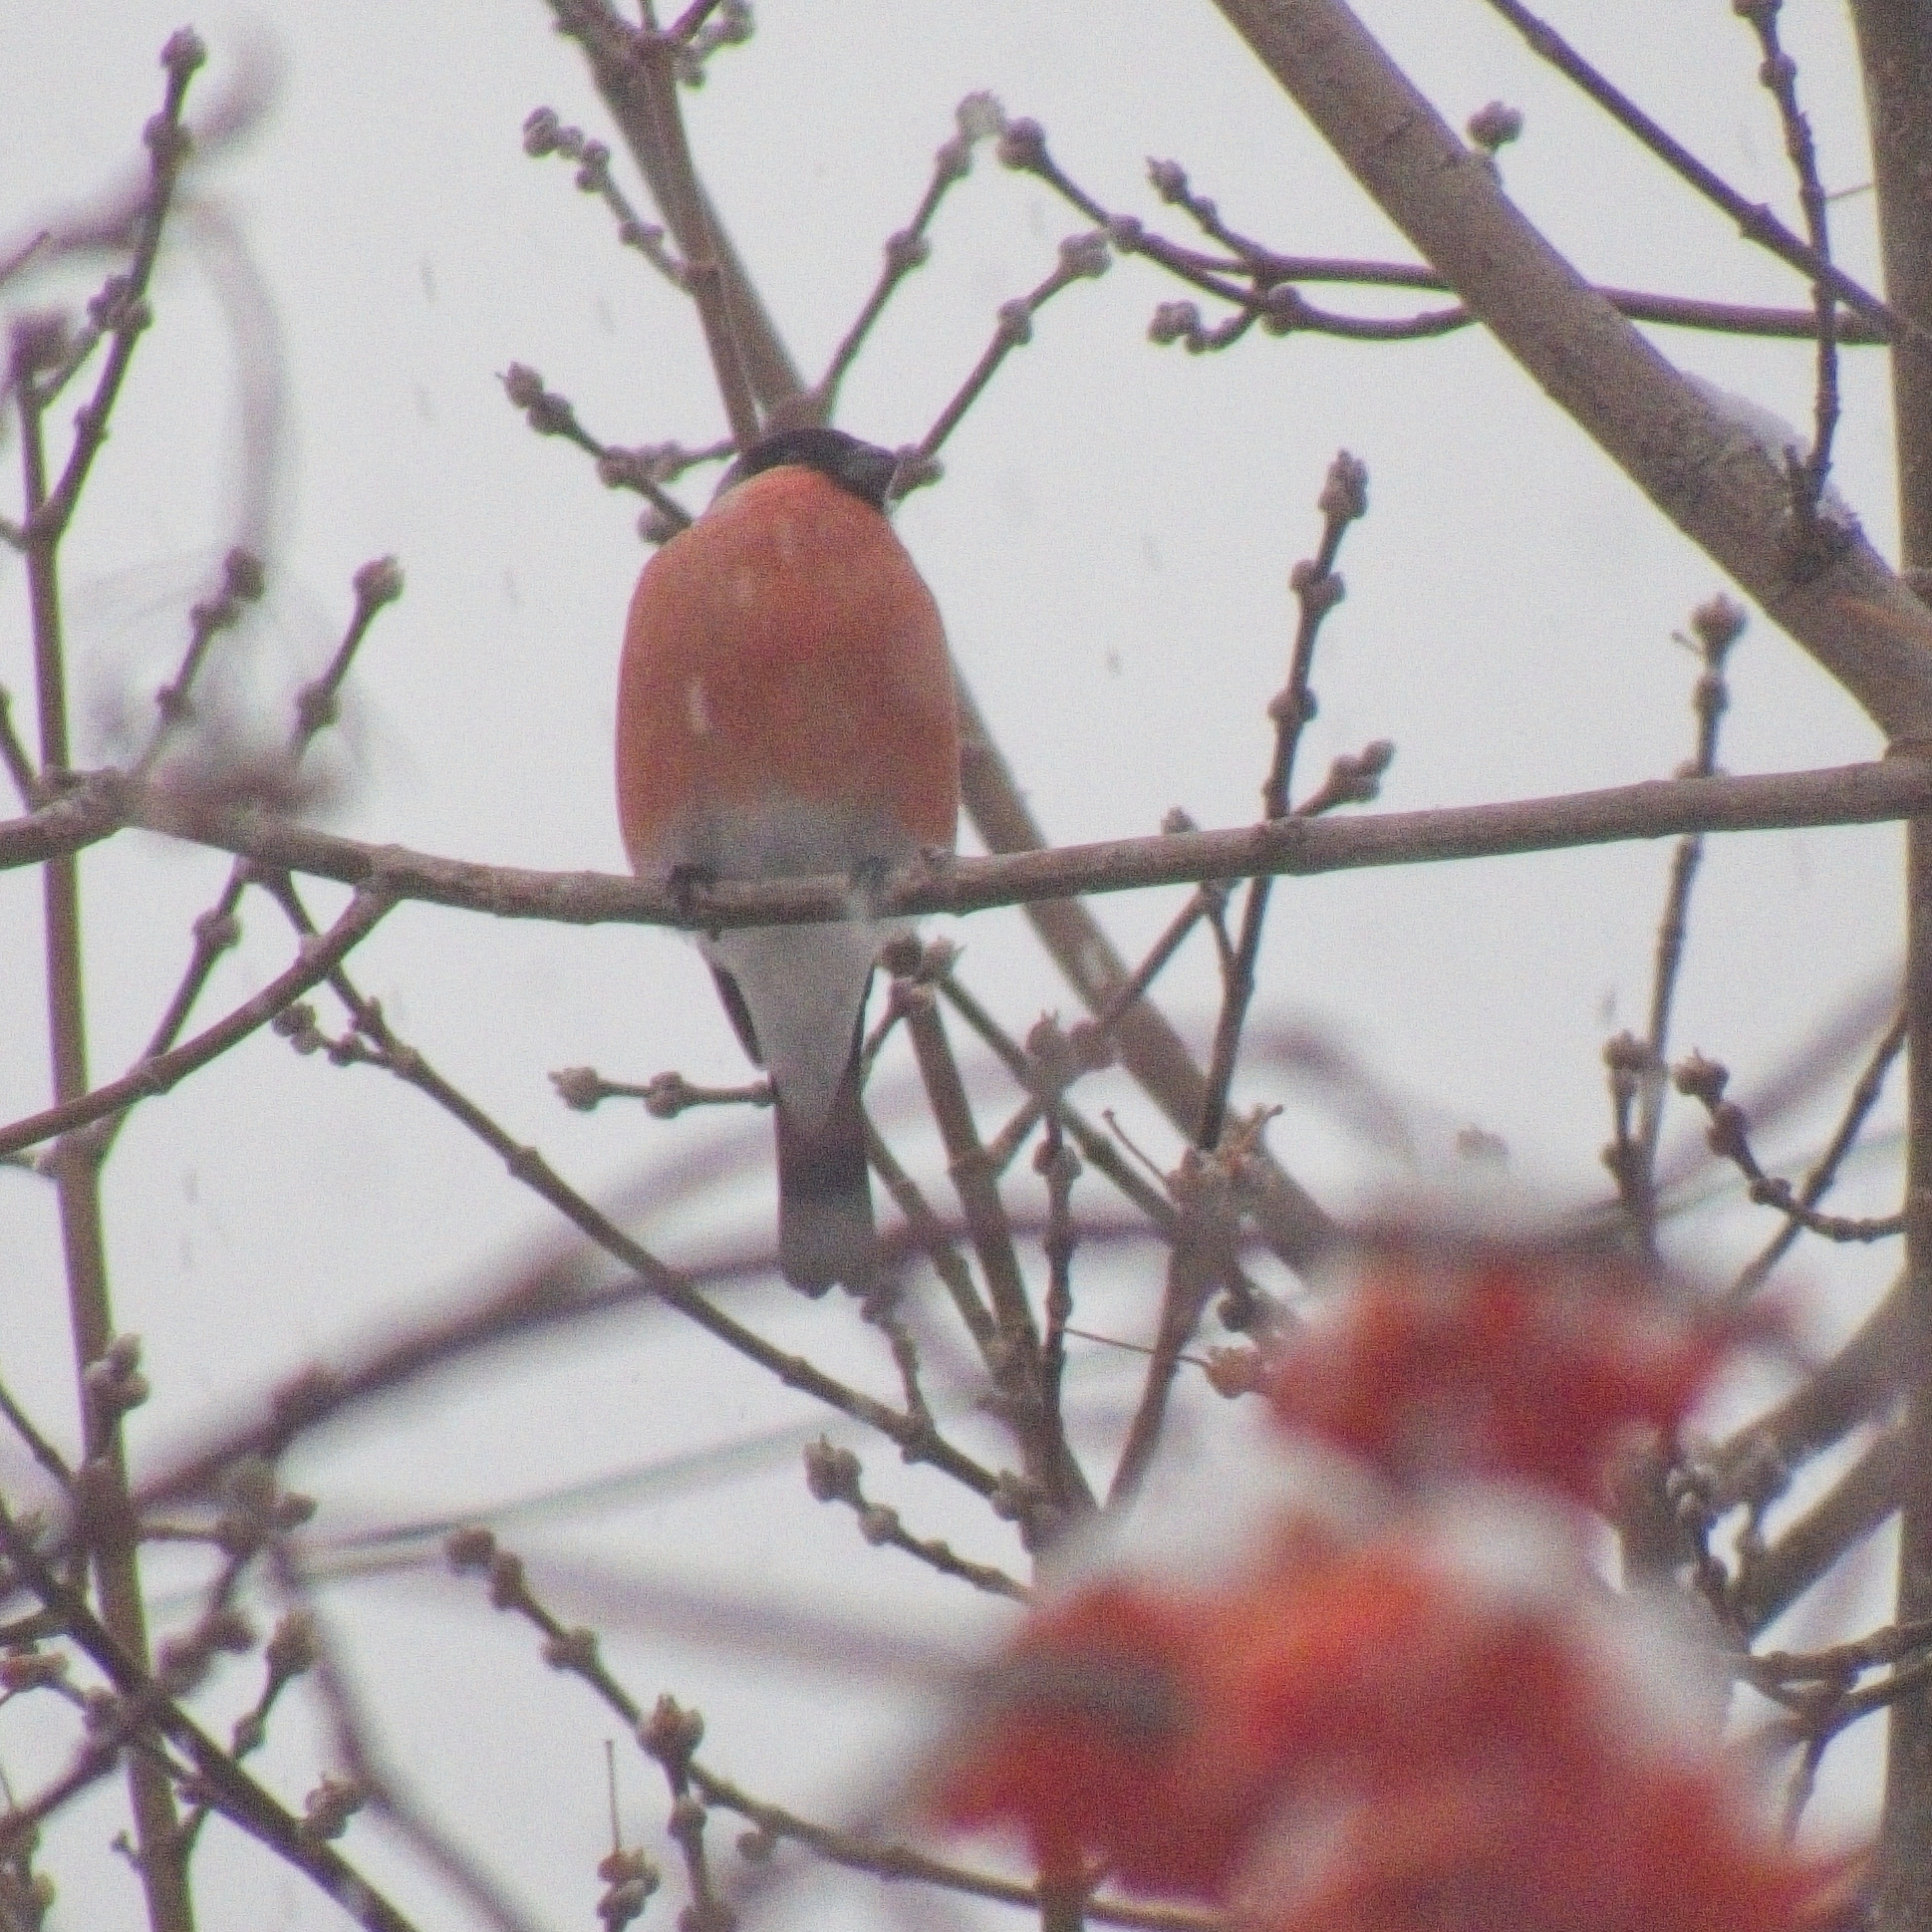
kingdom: Animalia
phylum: Chordata
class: Aves
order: Passeriformes
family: Fringillidae
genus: Pyrrhula
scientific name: Pyrrhula pyrrhula
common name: Eurasian bullfinch
